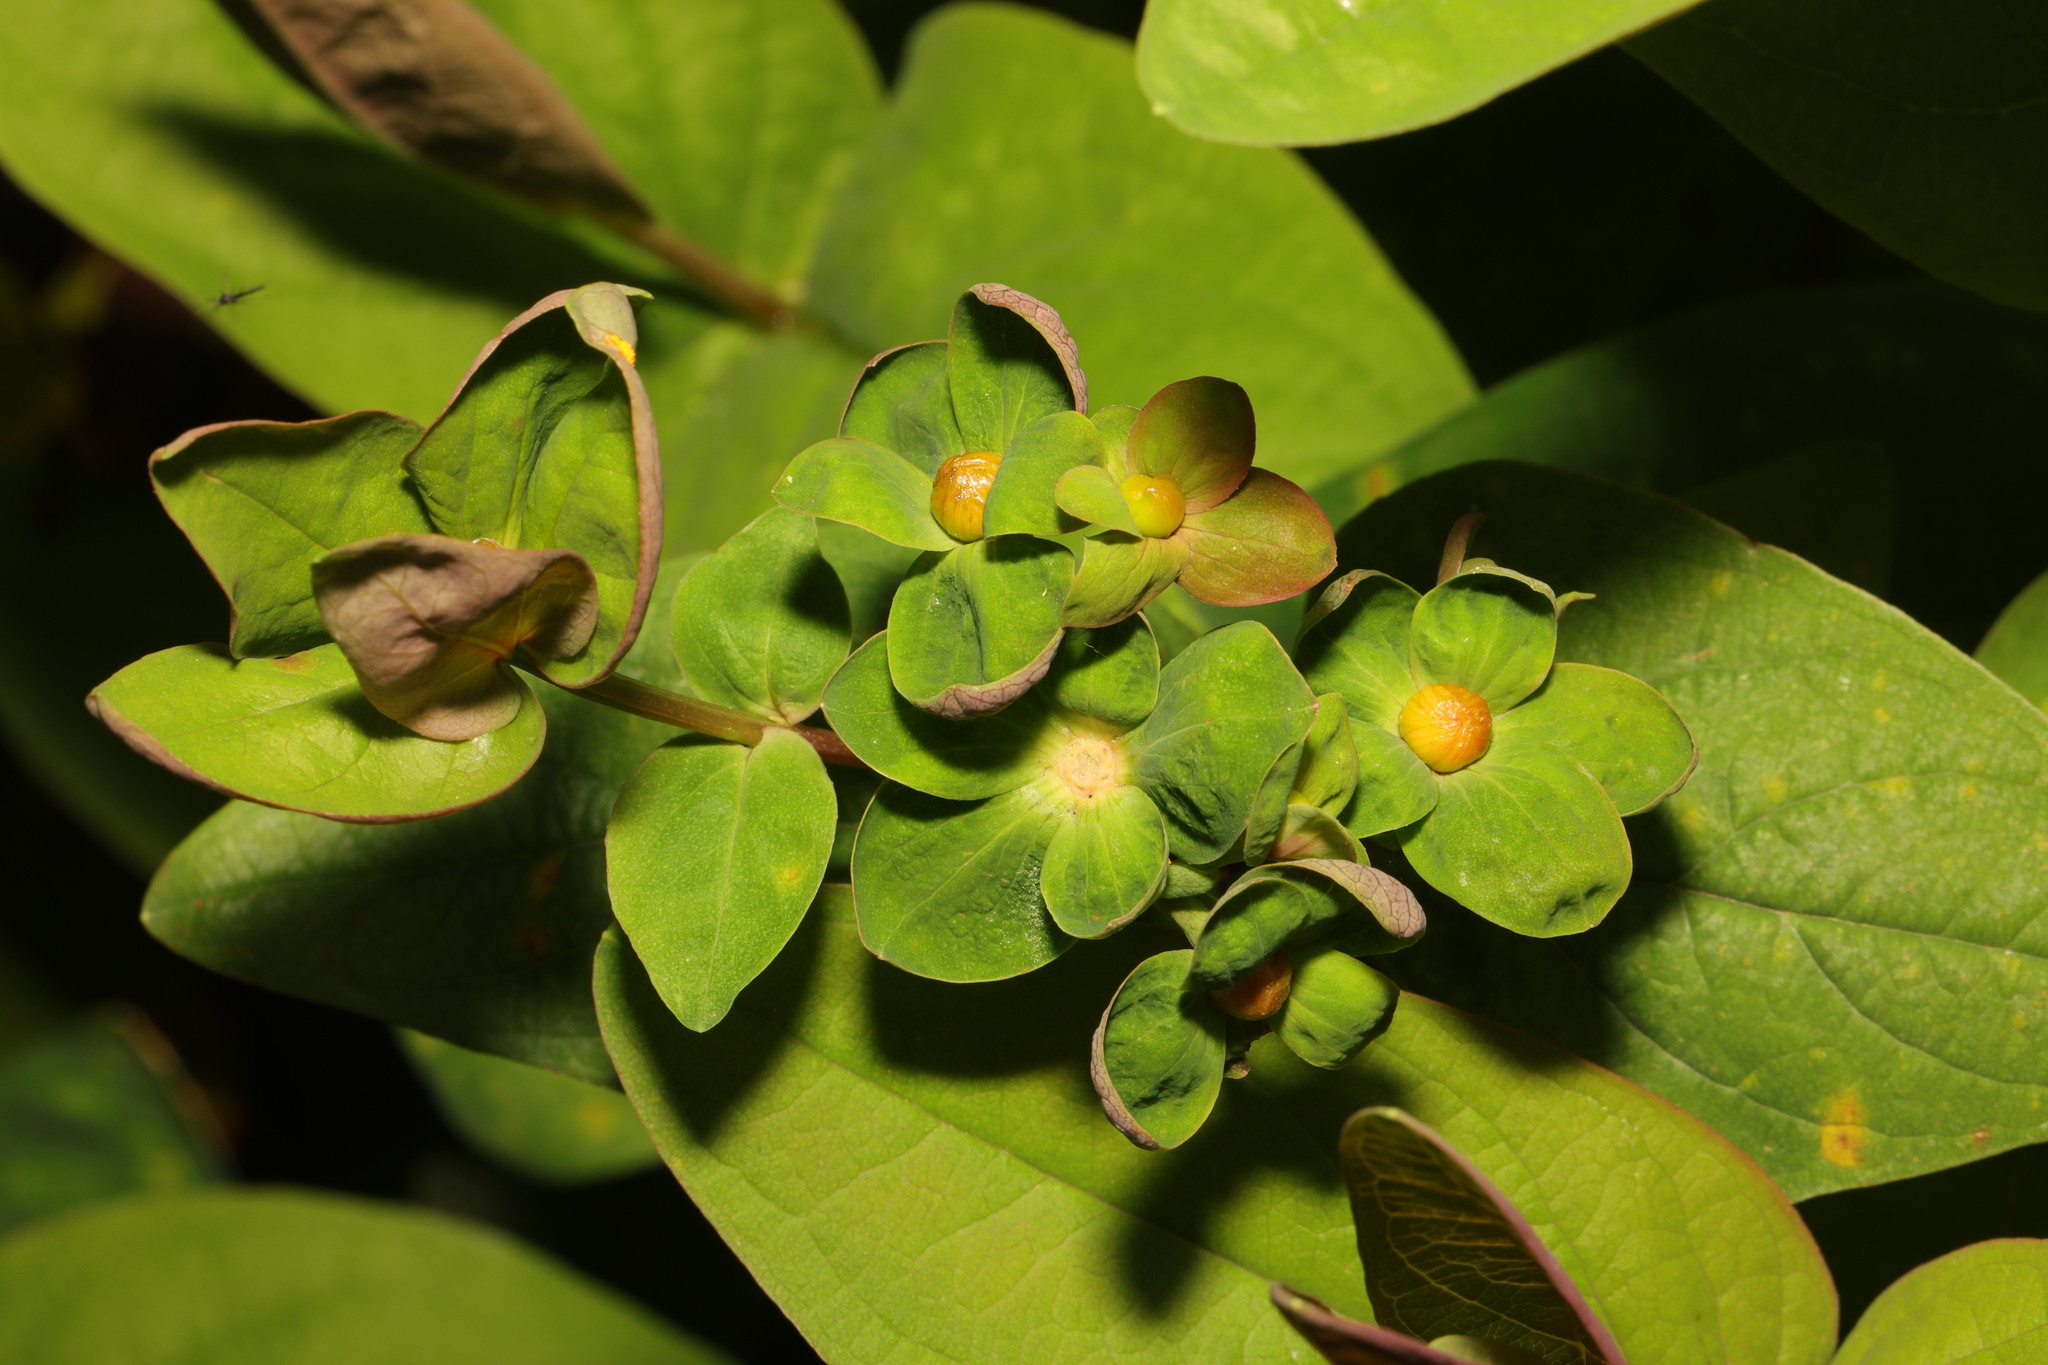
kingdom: Plantae
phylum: Tracheophyta
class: Magnoliopsida
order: Malpighiales
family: Hypericaceae
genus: Hypericum
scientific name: Hypericum androsaemum
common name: Sweet-amber
